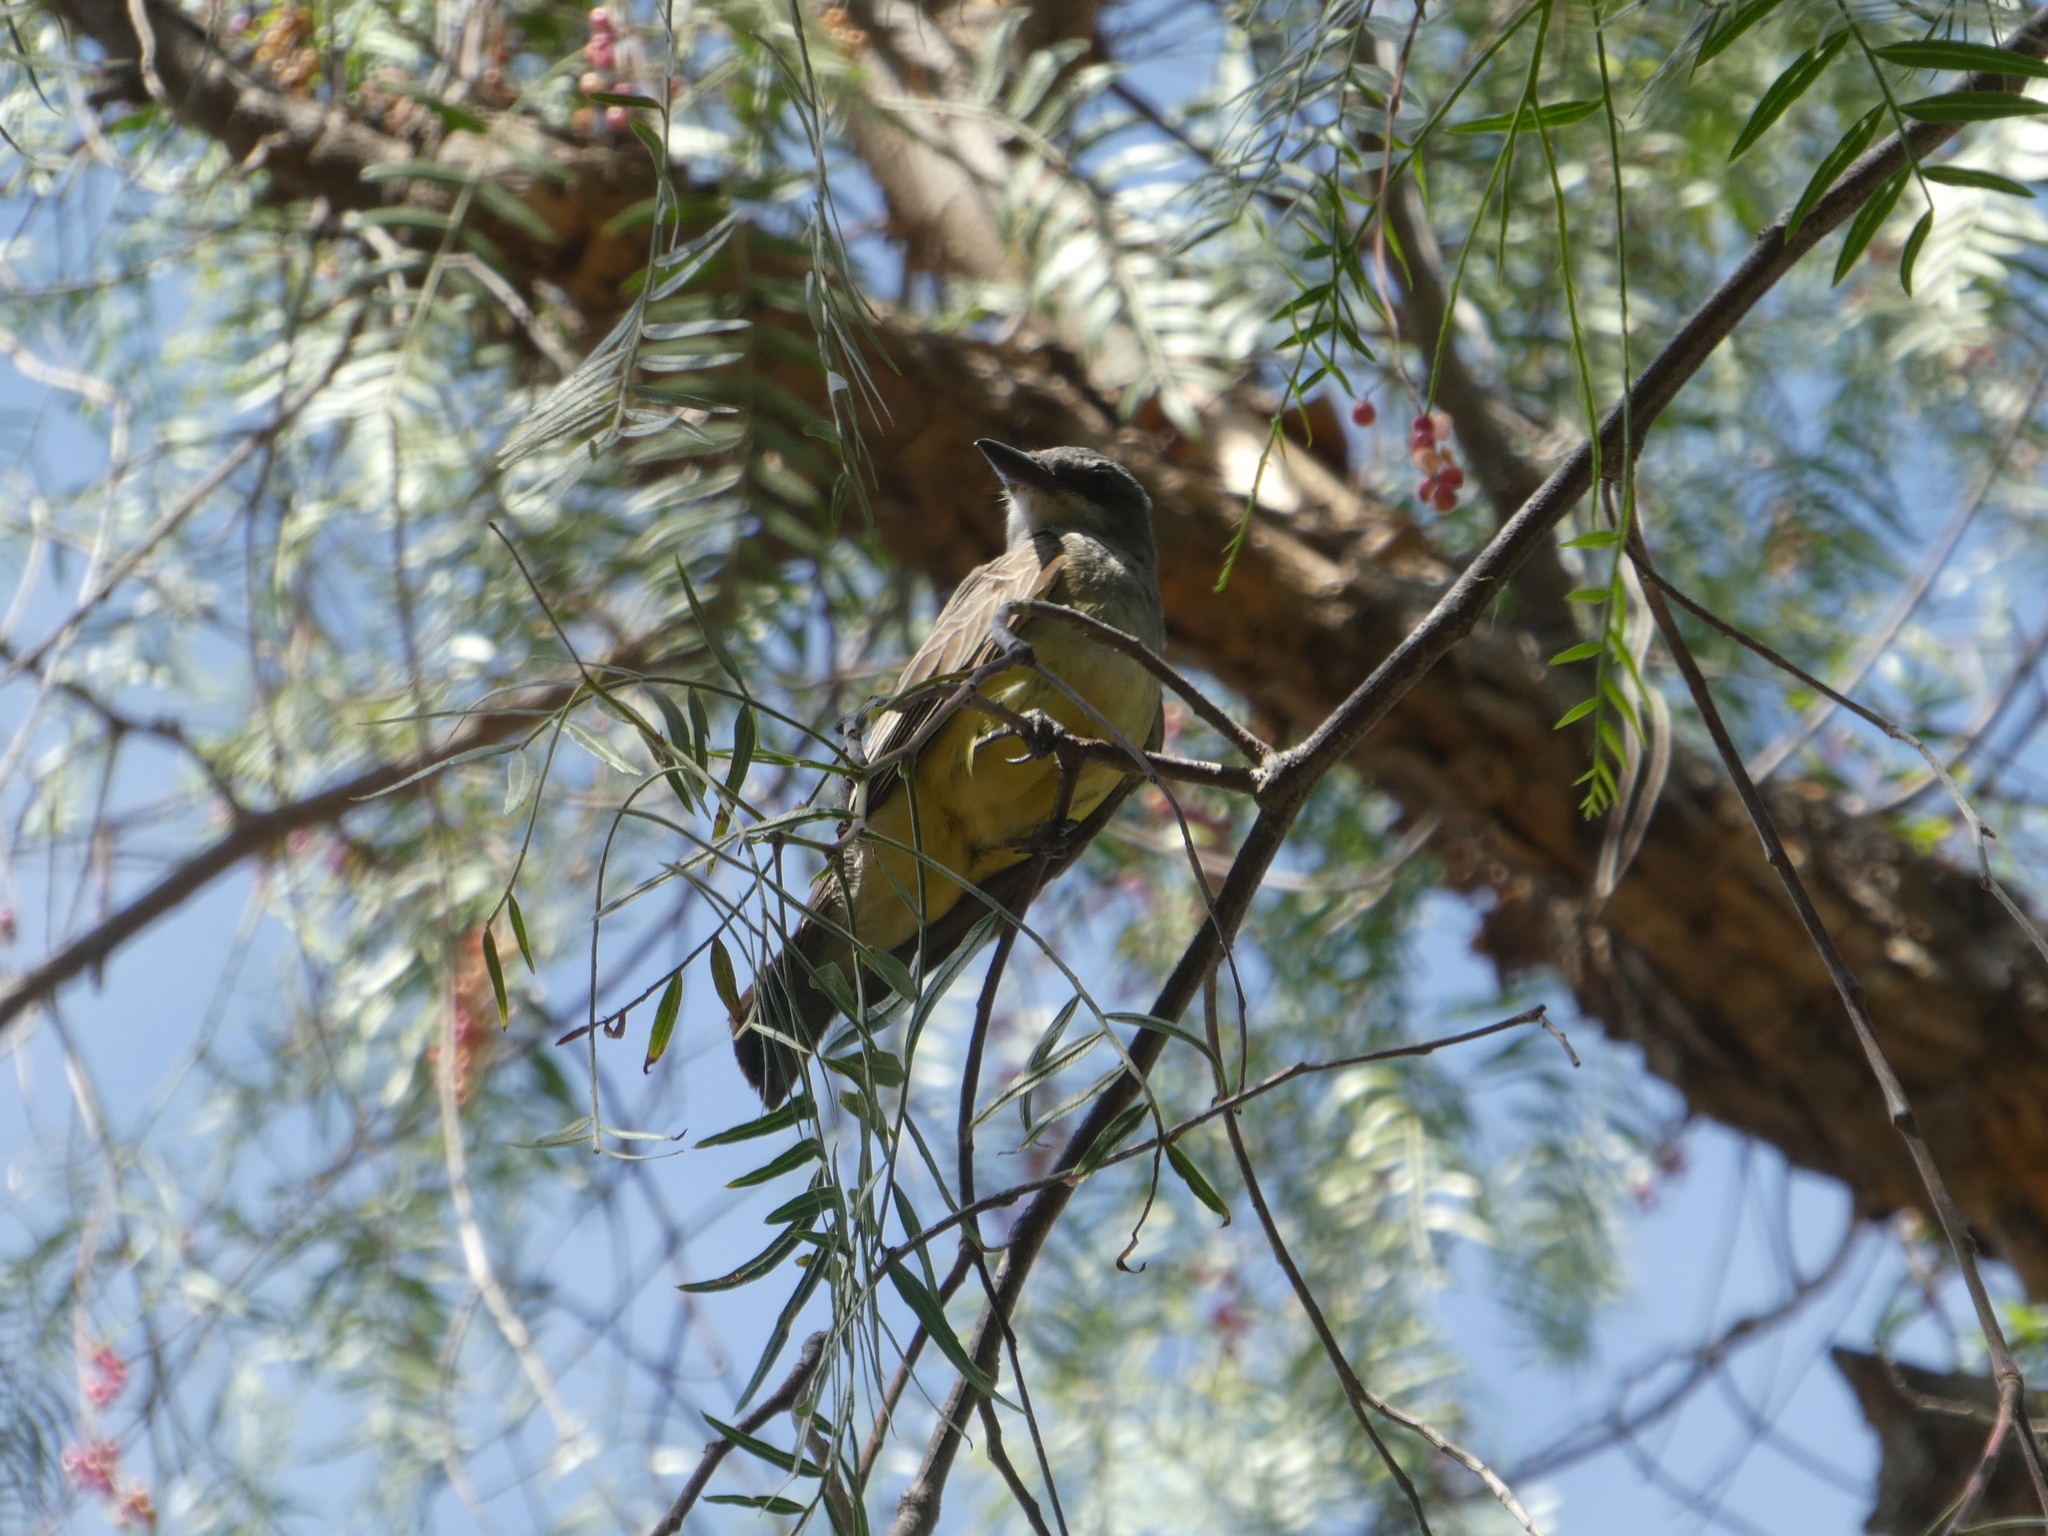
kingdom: Animalia
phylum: Chordata
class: Aves
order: Passeriformes
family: Tyrannidae
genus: Tyrannus
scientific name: Tyrannus vociferans
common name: Cassin's kingbird
